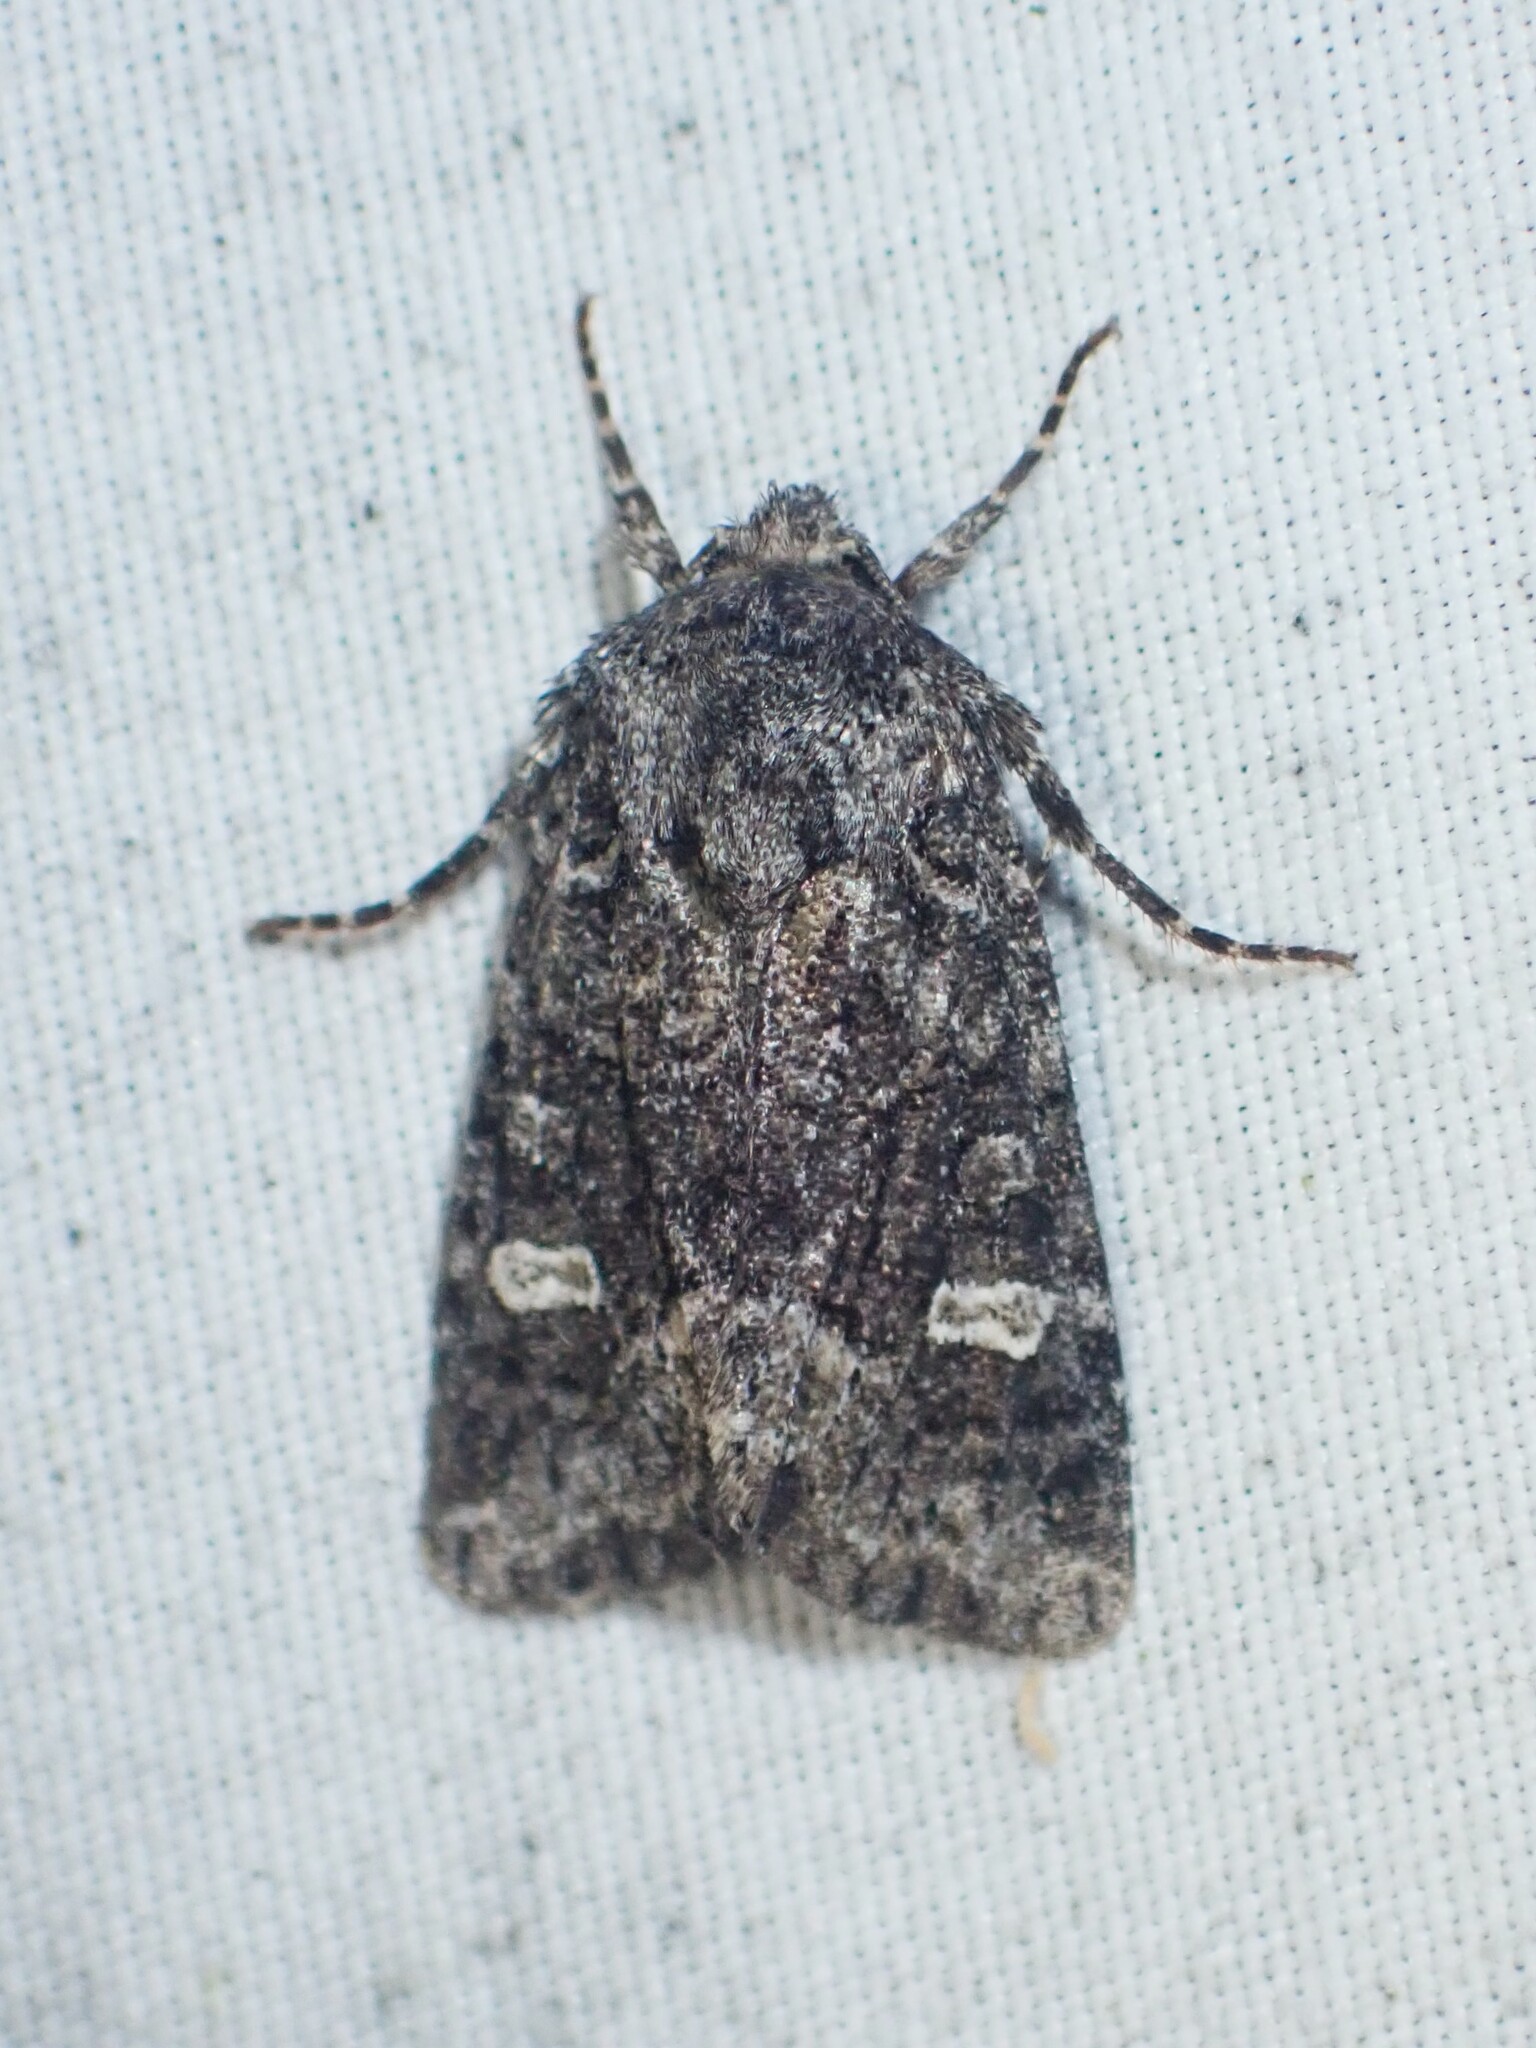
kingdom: Animalia
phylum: Arthropoda
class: Insecta
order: Lepidoptera
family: Noctuidae
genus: Lacinipolia
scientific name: Lacinipolia olivacea
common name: Olive arches moth
